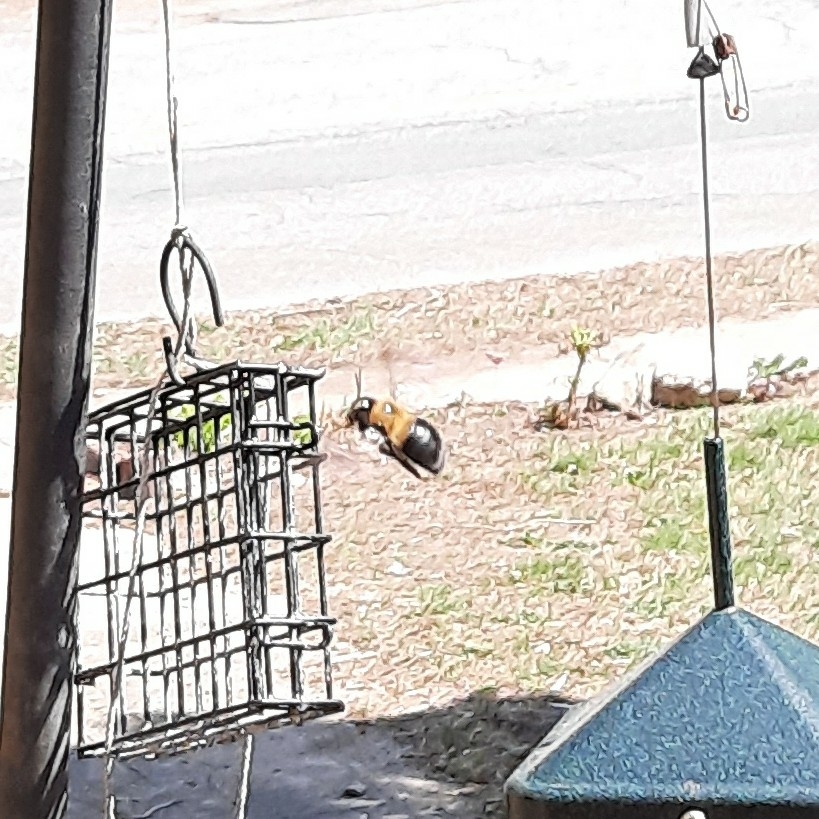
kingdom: Animalia
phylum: Arthropoda
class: Insecta
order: Hymenoptera
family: Apidae
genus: Xylocopa
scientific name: Xylocopa virginica
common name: Carpenter bee
